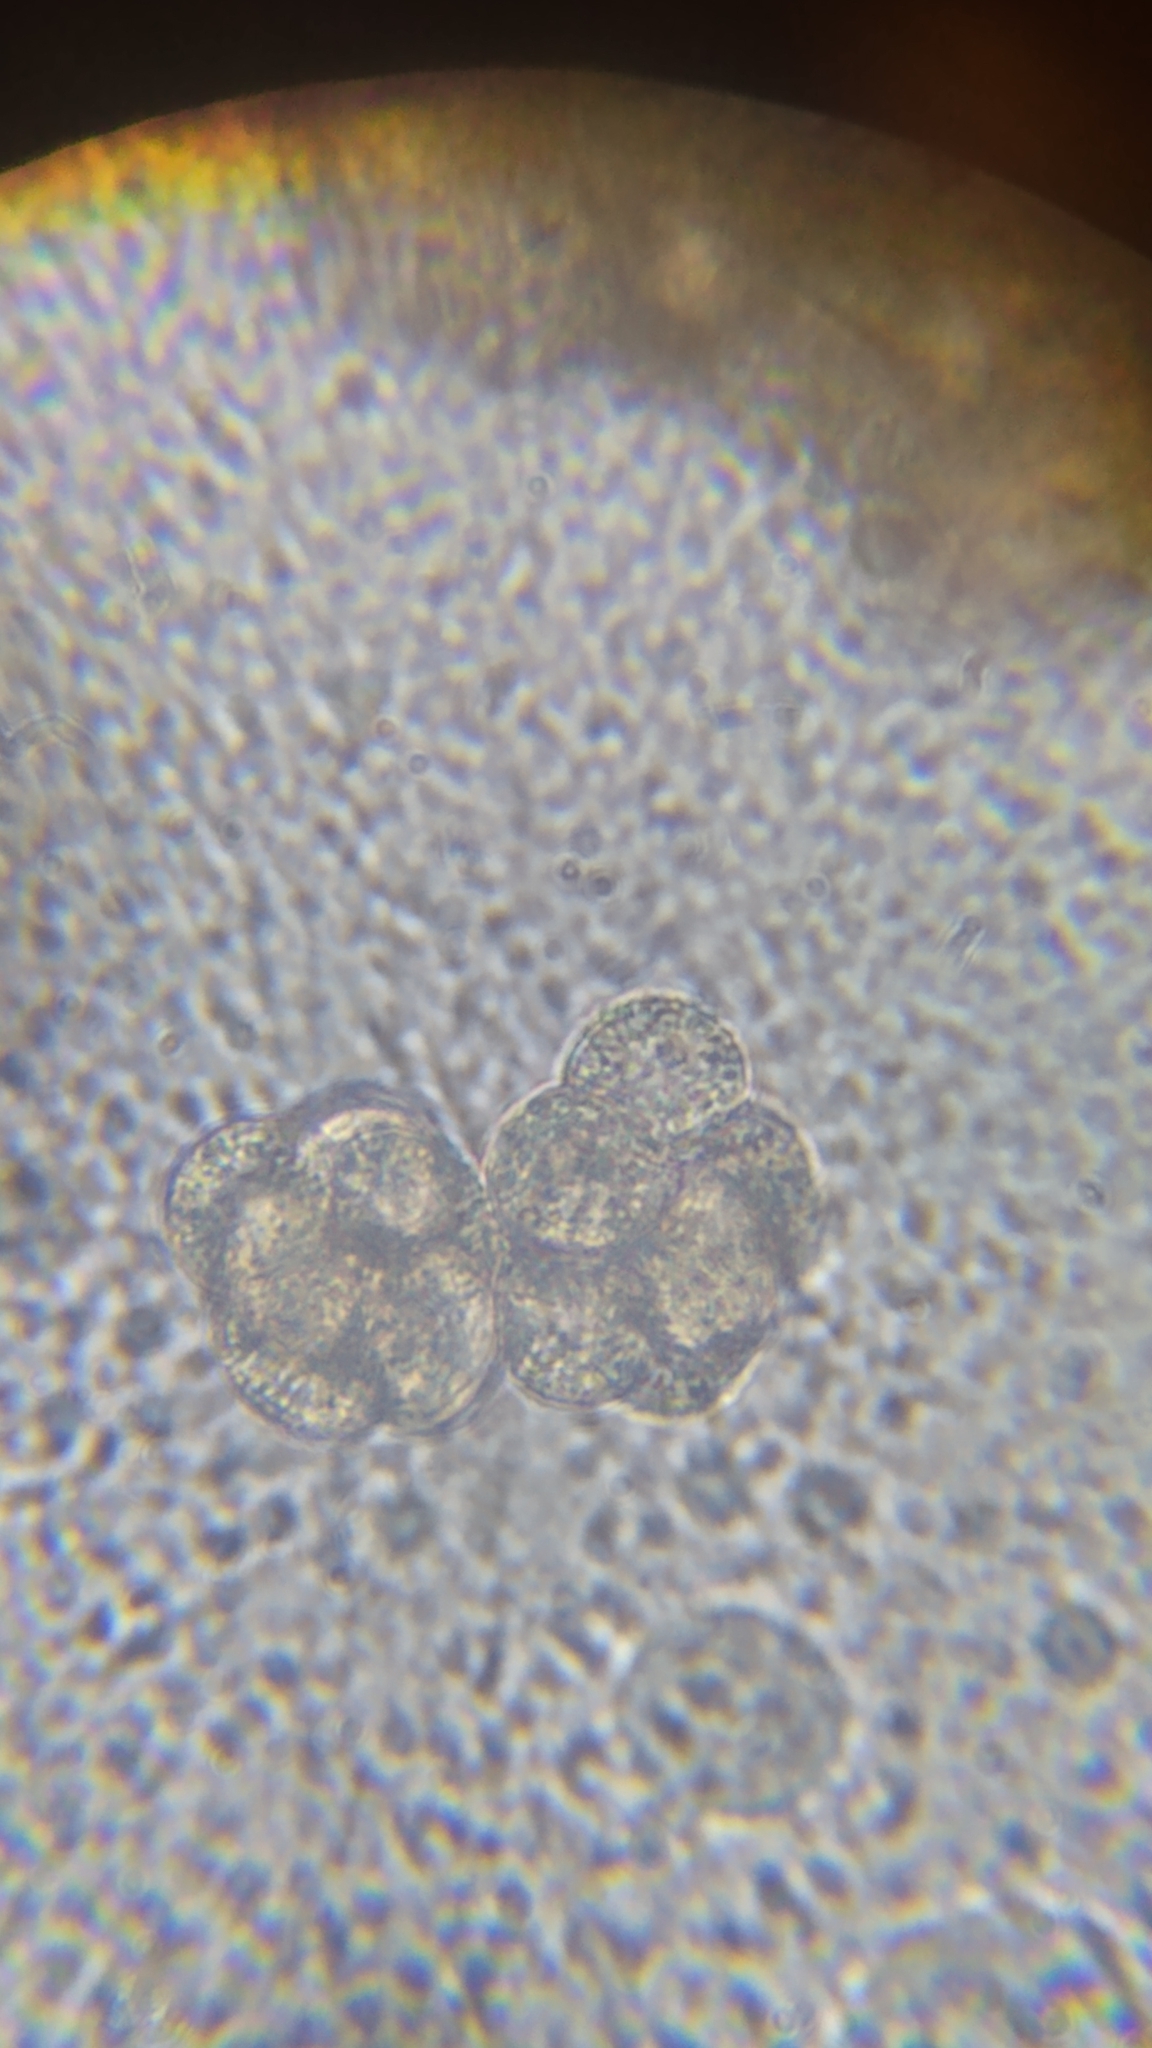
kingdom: Protozoa
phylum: Mycetozoa
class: Myxomycetes
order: Trichiales
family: Dictydiaethaliaceae
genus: Dictydiaethalium
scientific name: Dictydiaethalium plumbeum
